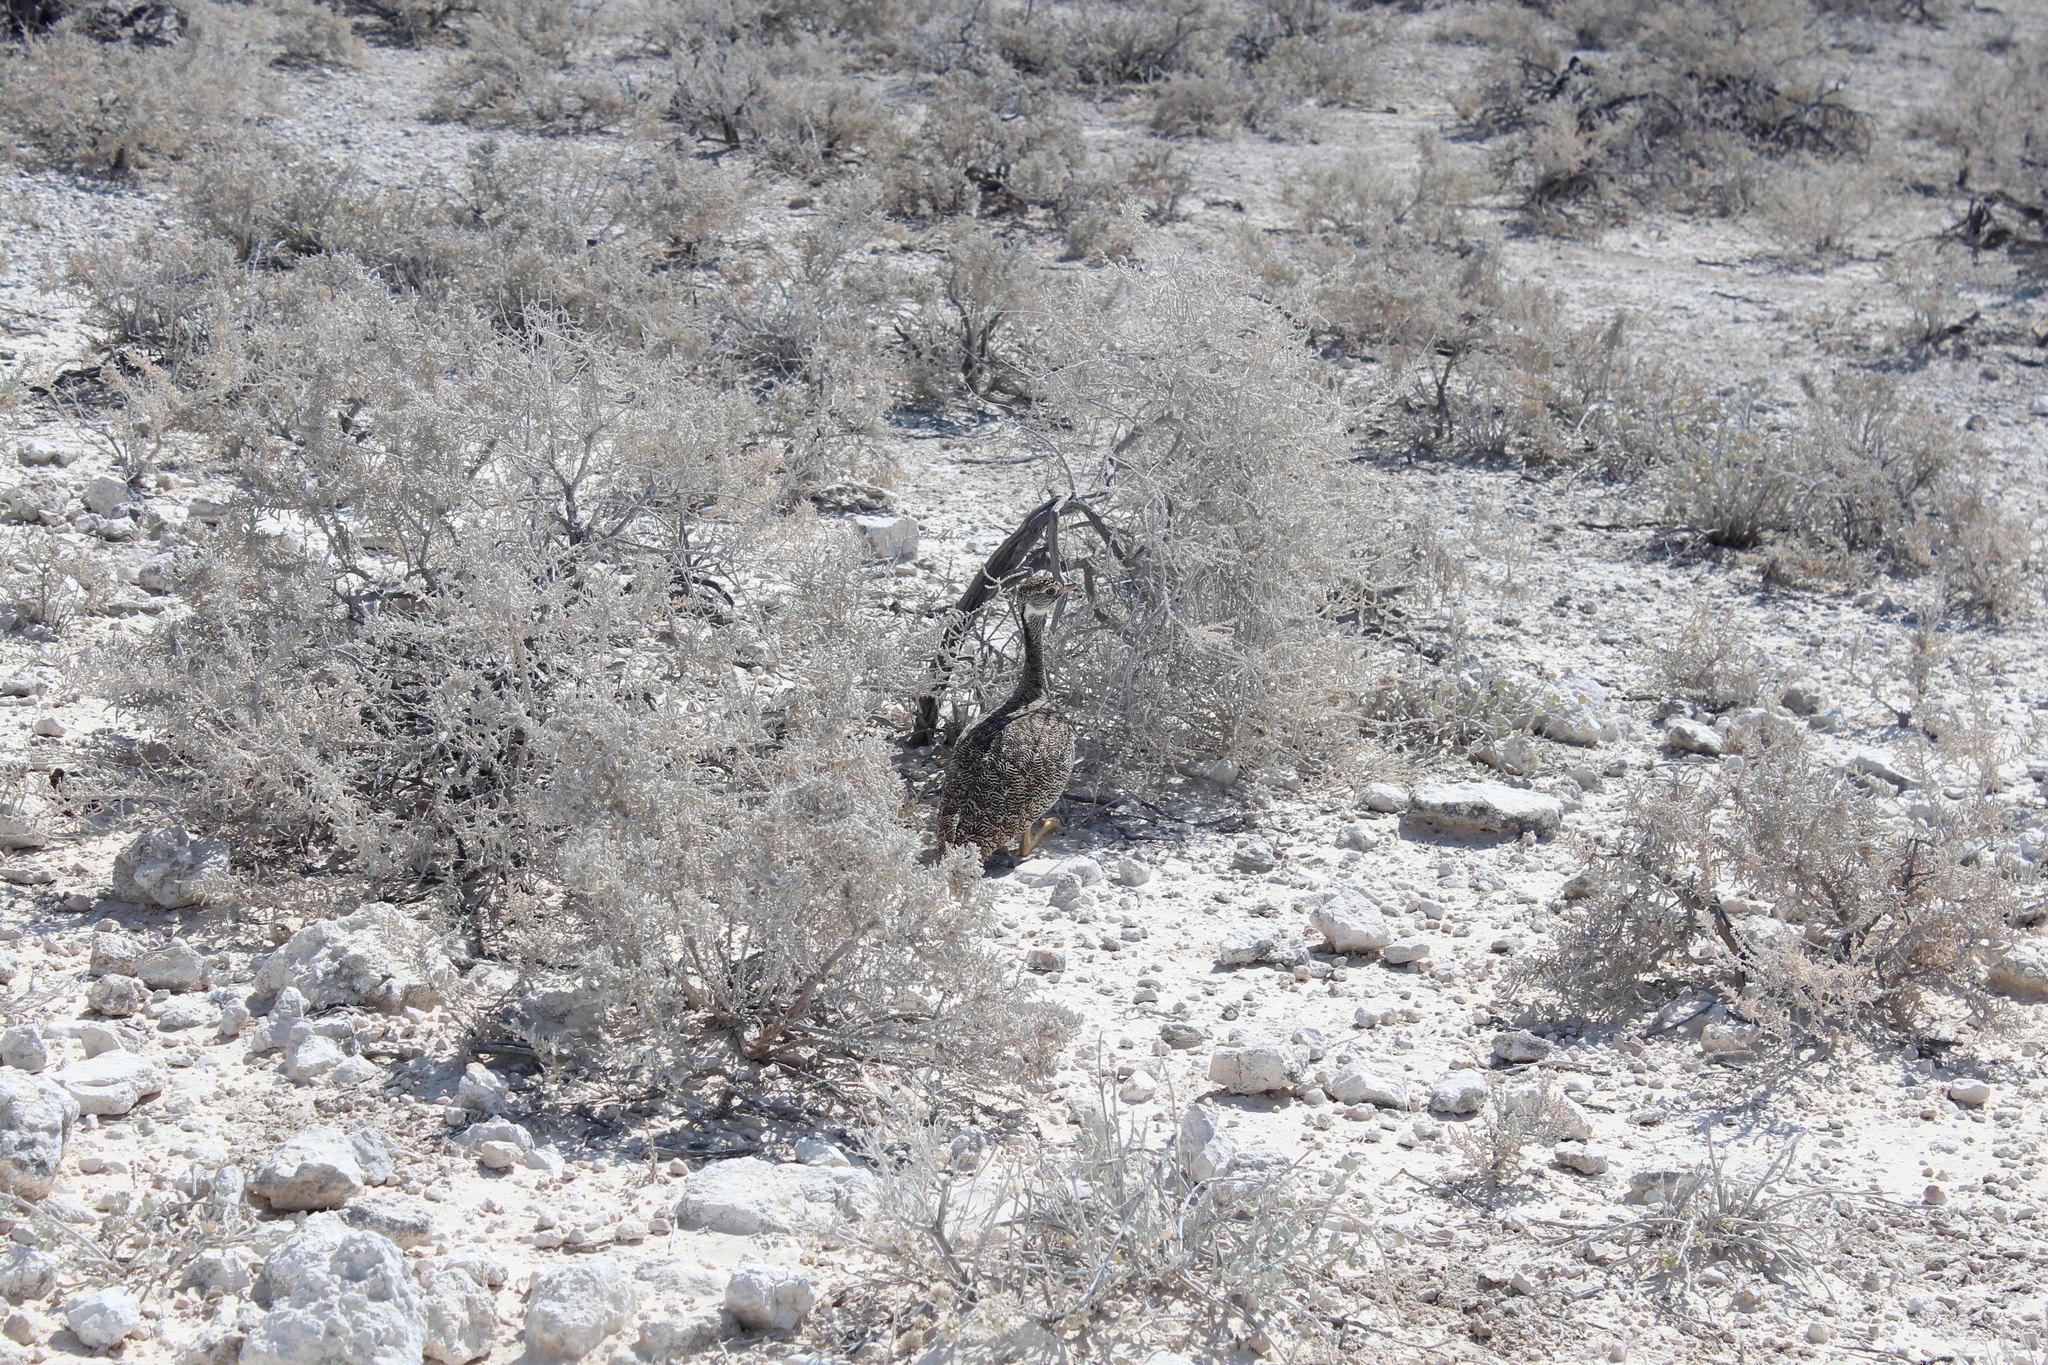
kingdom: Animalia
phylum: Chordata
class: Aves
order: Otidiformes
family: Otididae
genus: Afrotis
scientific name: Afrotis afraoides
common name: Northern black korhaan
